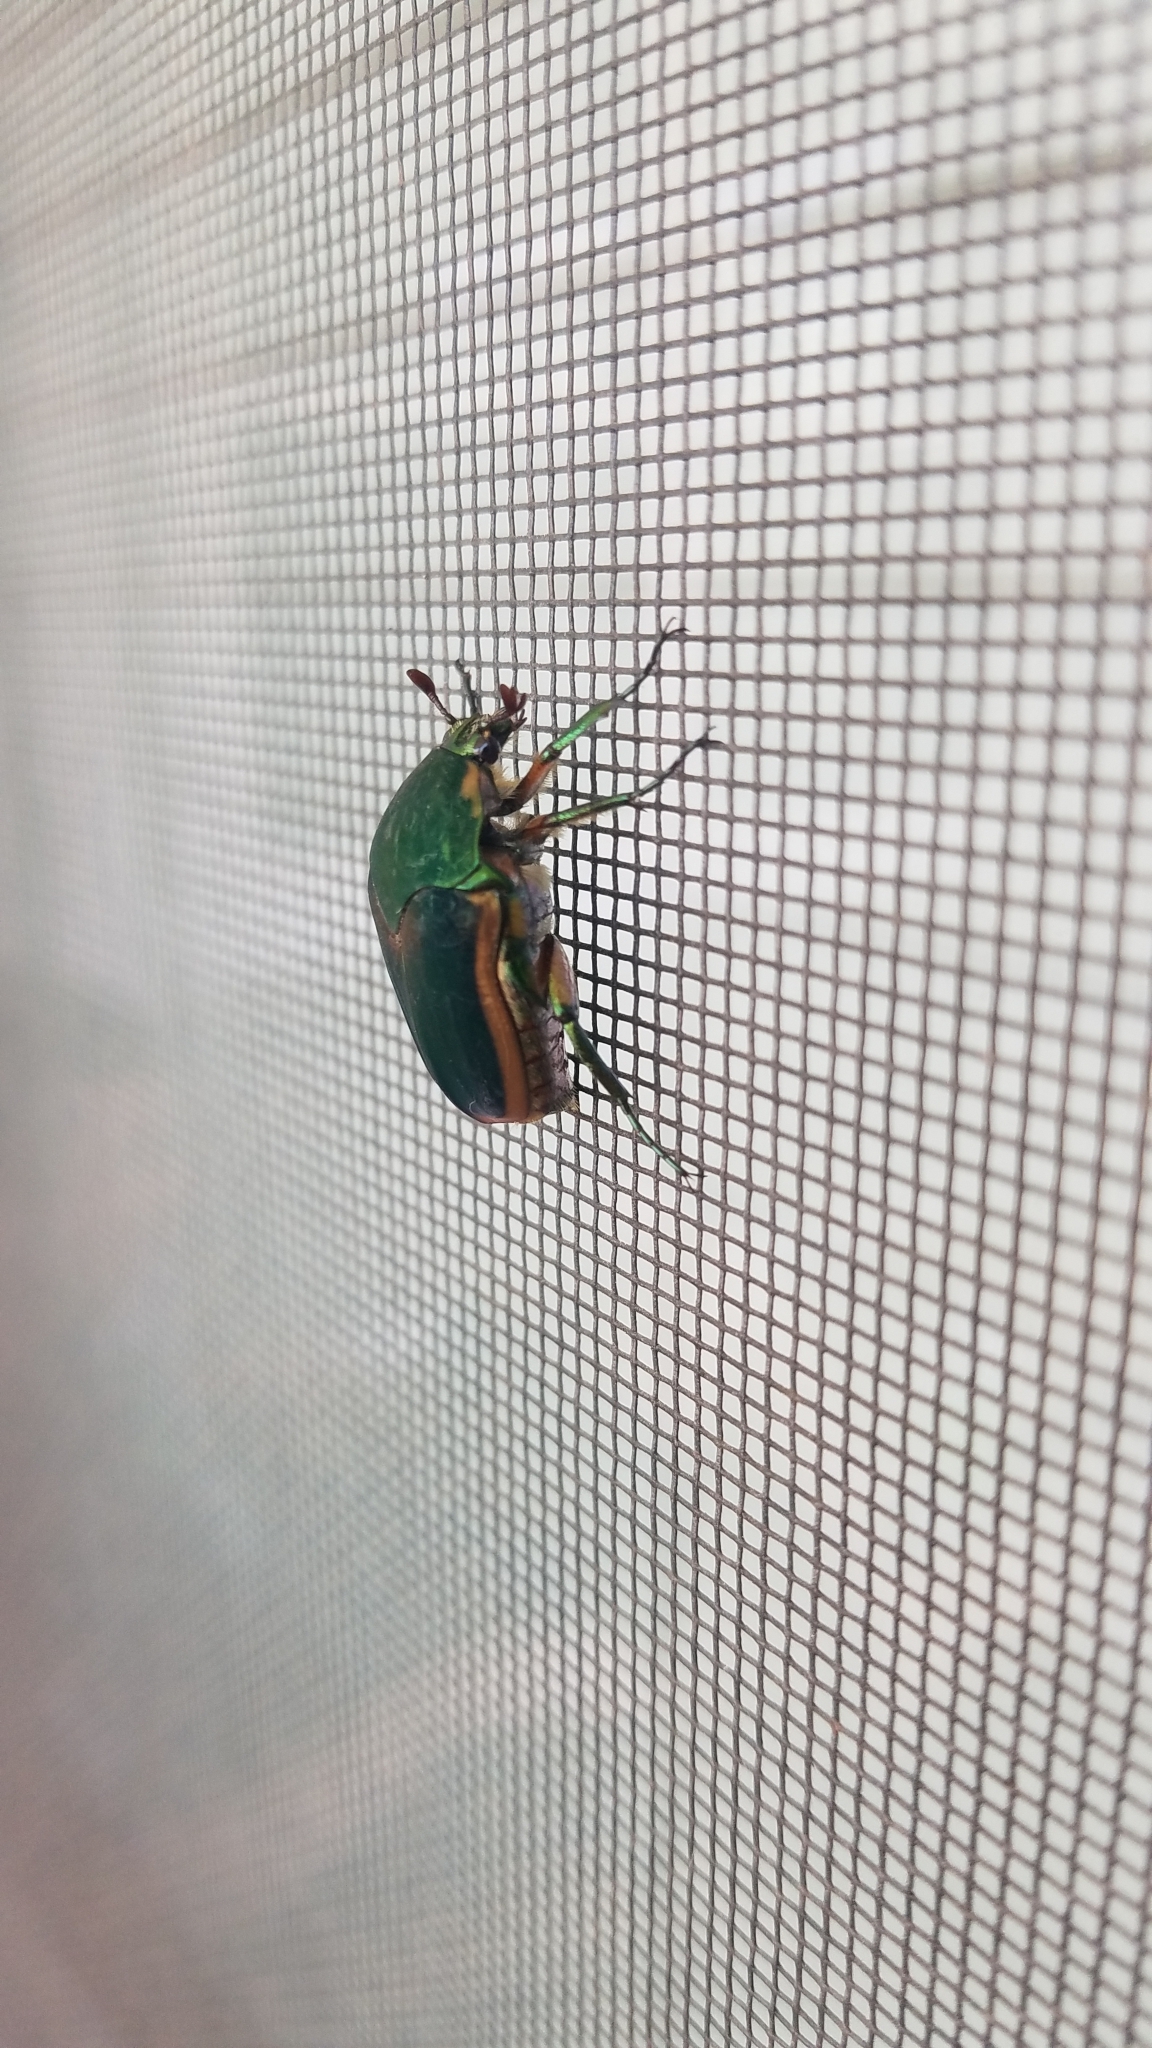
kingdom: Animalia
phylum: Arthropoda
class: Insecta
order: Coleoptera
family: Scarabaeidae
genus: Cotinis
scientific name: Cotinis nitida
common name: Common green june beetle
